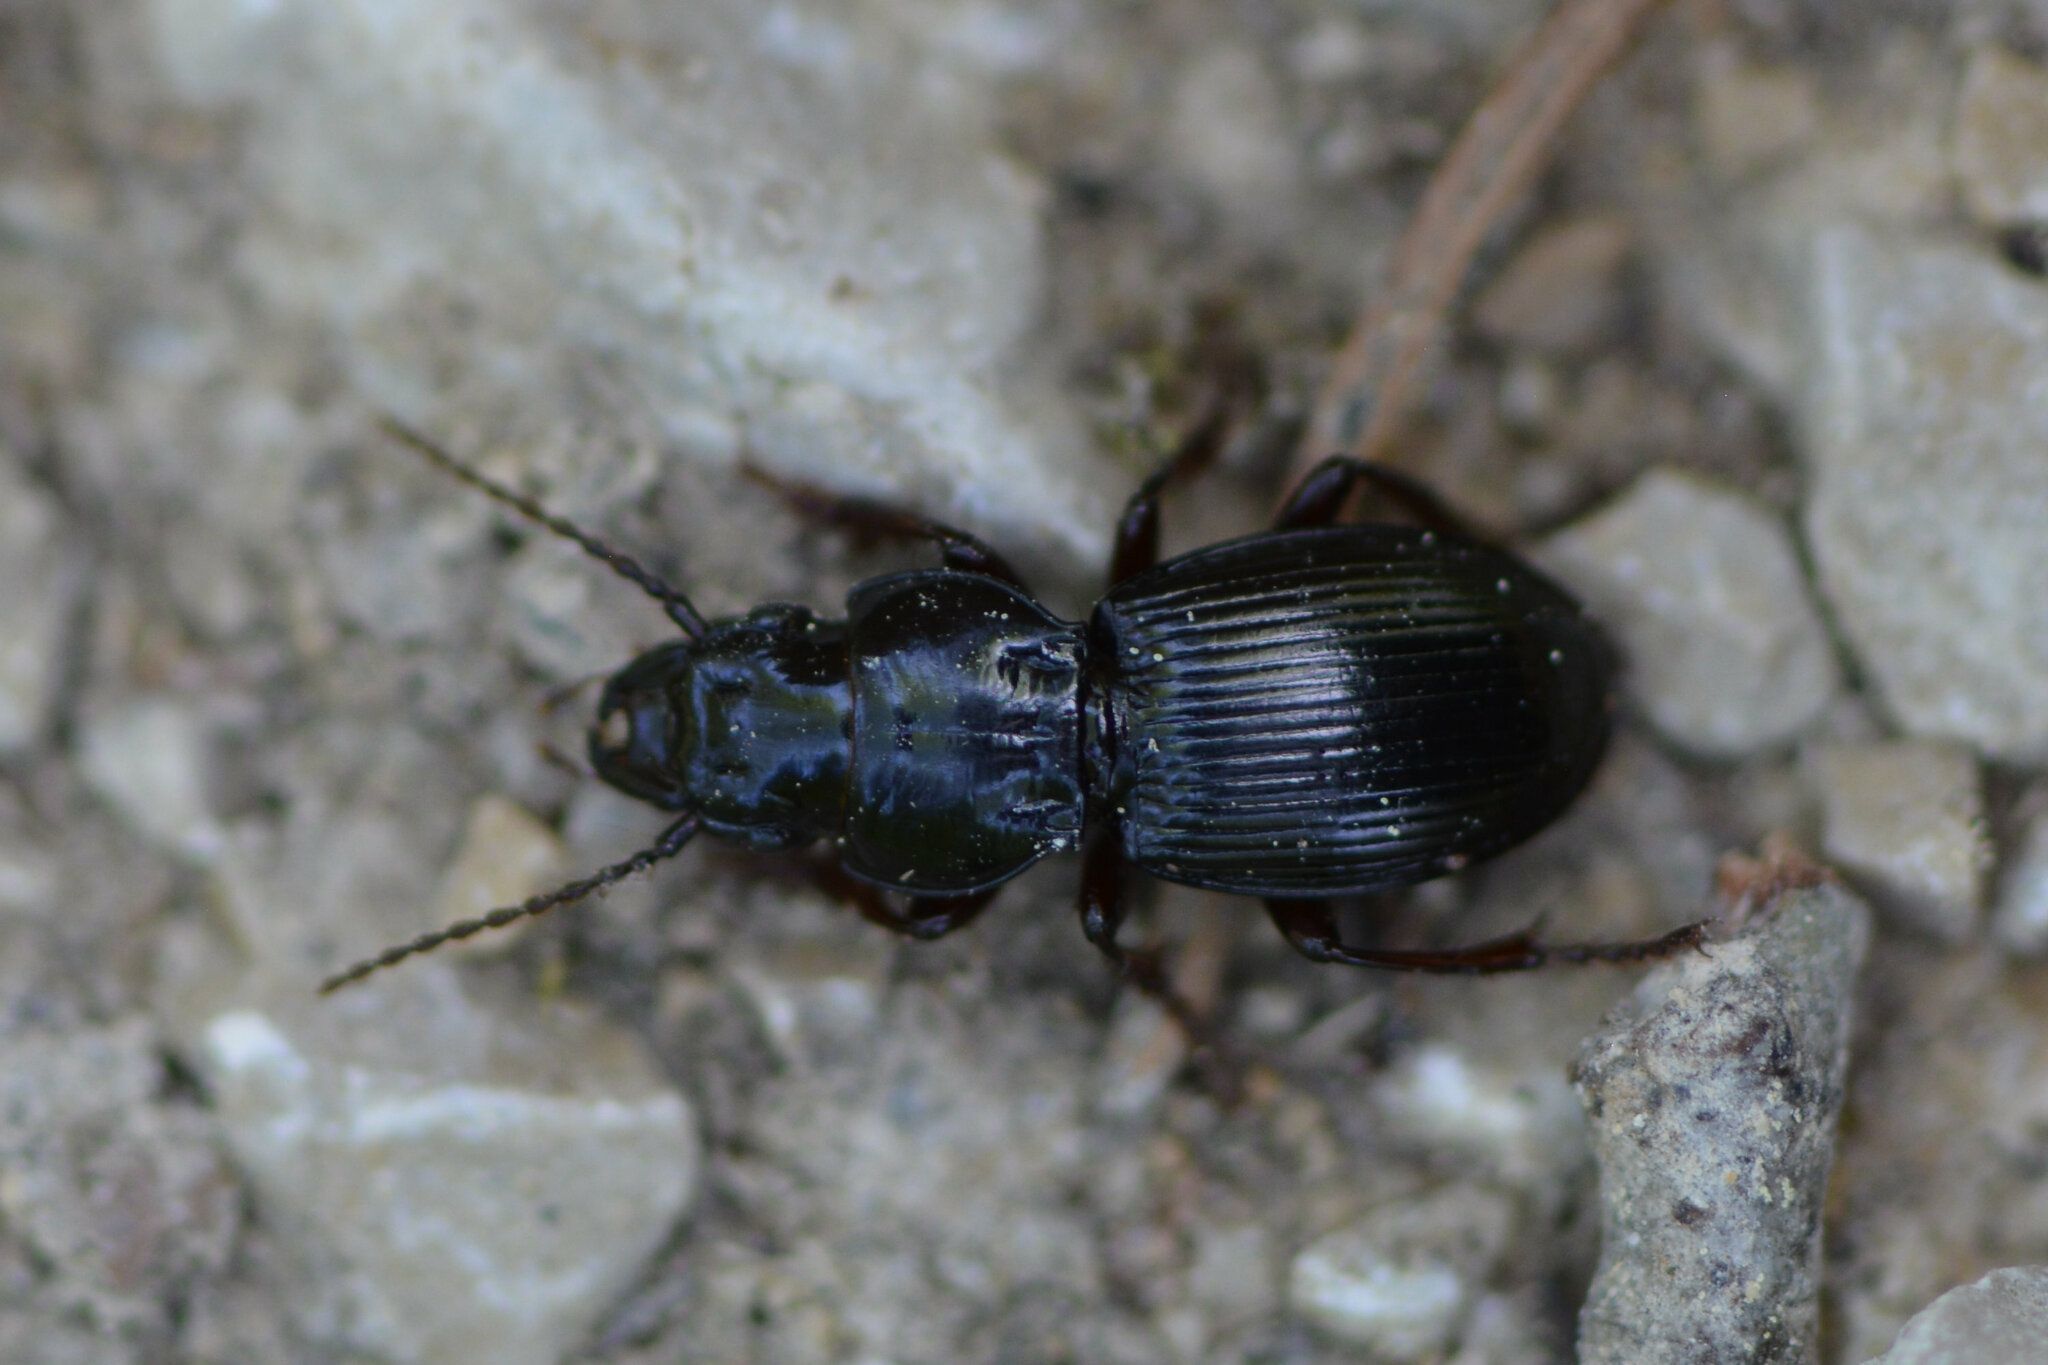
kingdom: Animalia
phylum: Arthropoda
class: Insecta
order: Coleoptera
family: Carabidae
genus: Molops
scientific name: Molops piceus
